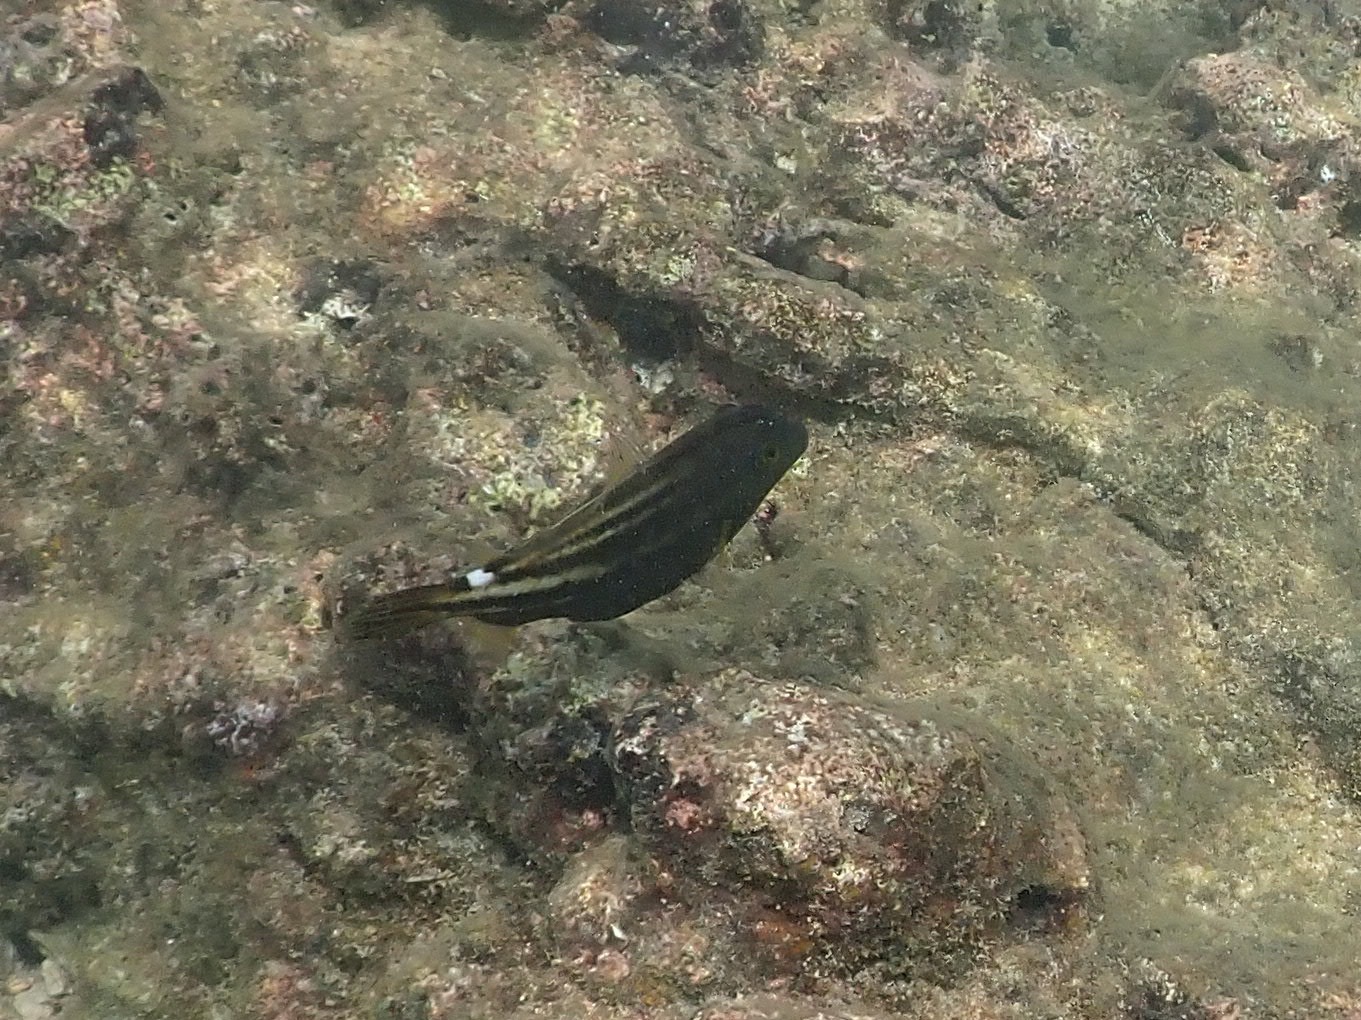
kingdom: Animalia
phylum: Chordata
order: Tetraodontiformes
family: Monacanthidae
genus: Cantherhines
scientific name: Cantherhines pullus
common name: Orangespotted filefish
